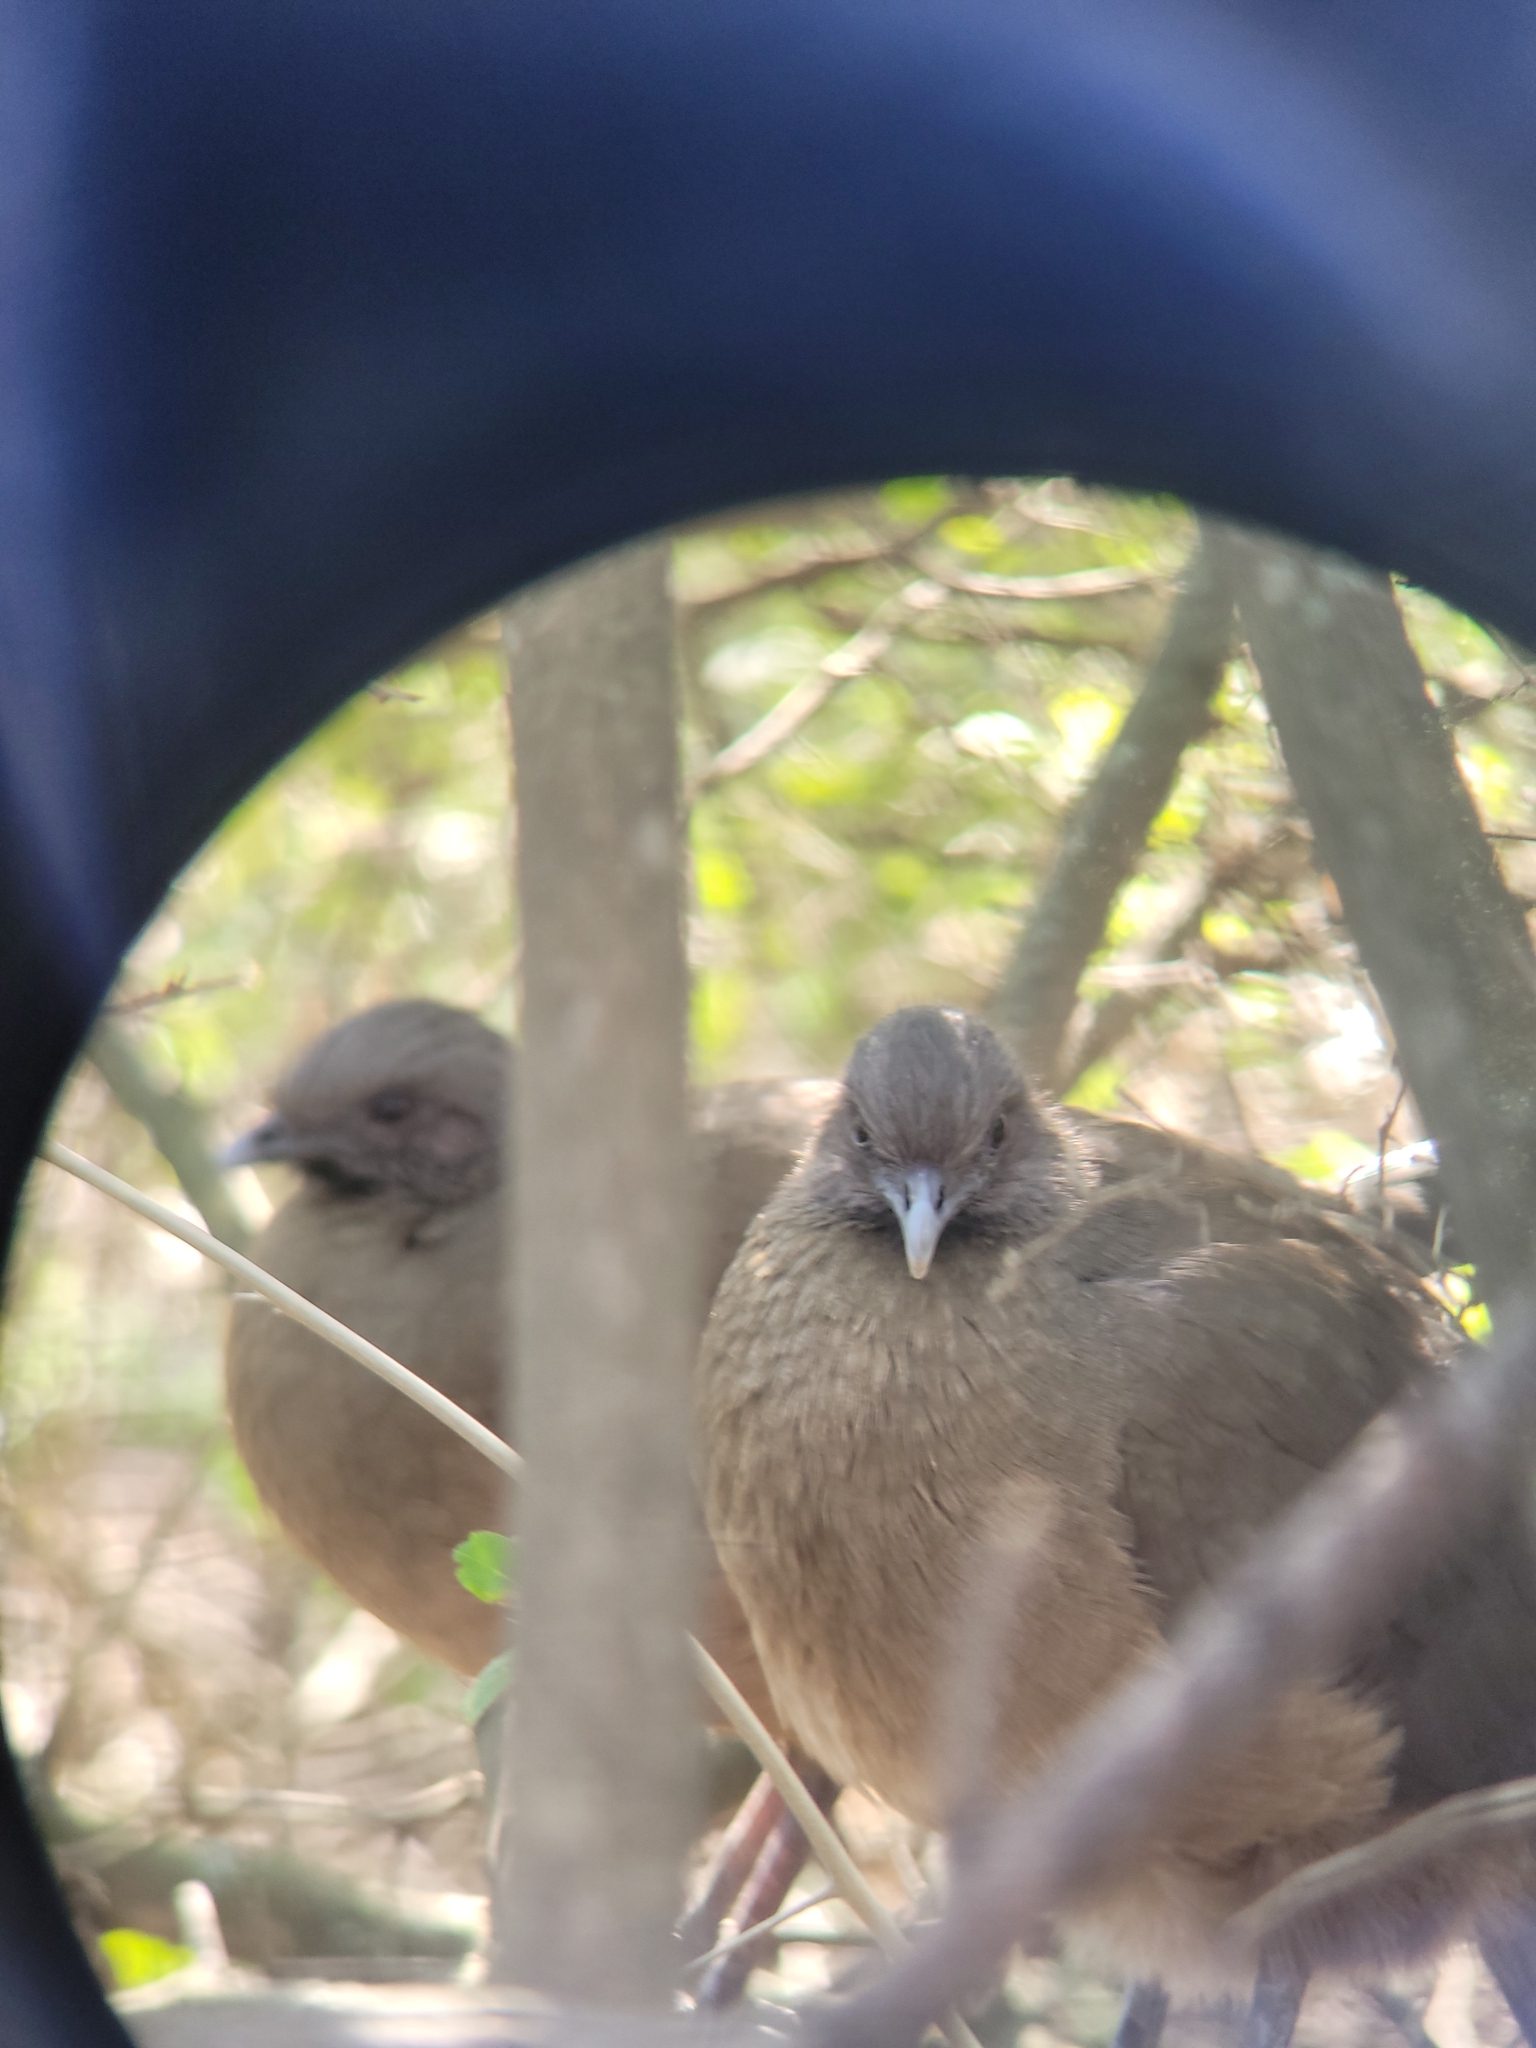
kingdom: Animalia
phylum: Chordata
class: Aves
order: Galliformes
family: Cracidae
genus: Ortalis
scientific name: Ortalis vetula
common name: Plain chachalaca
